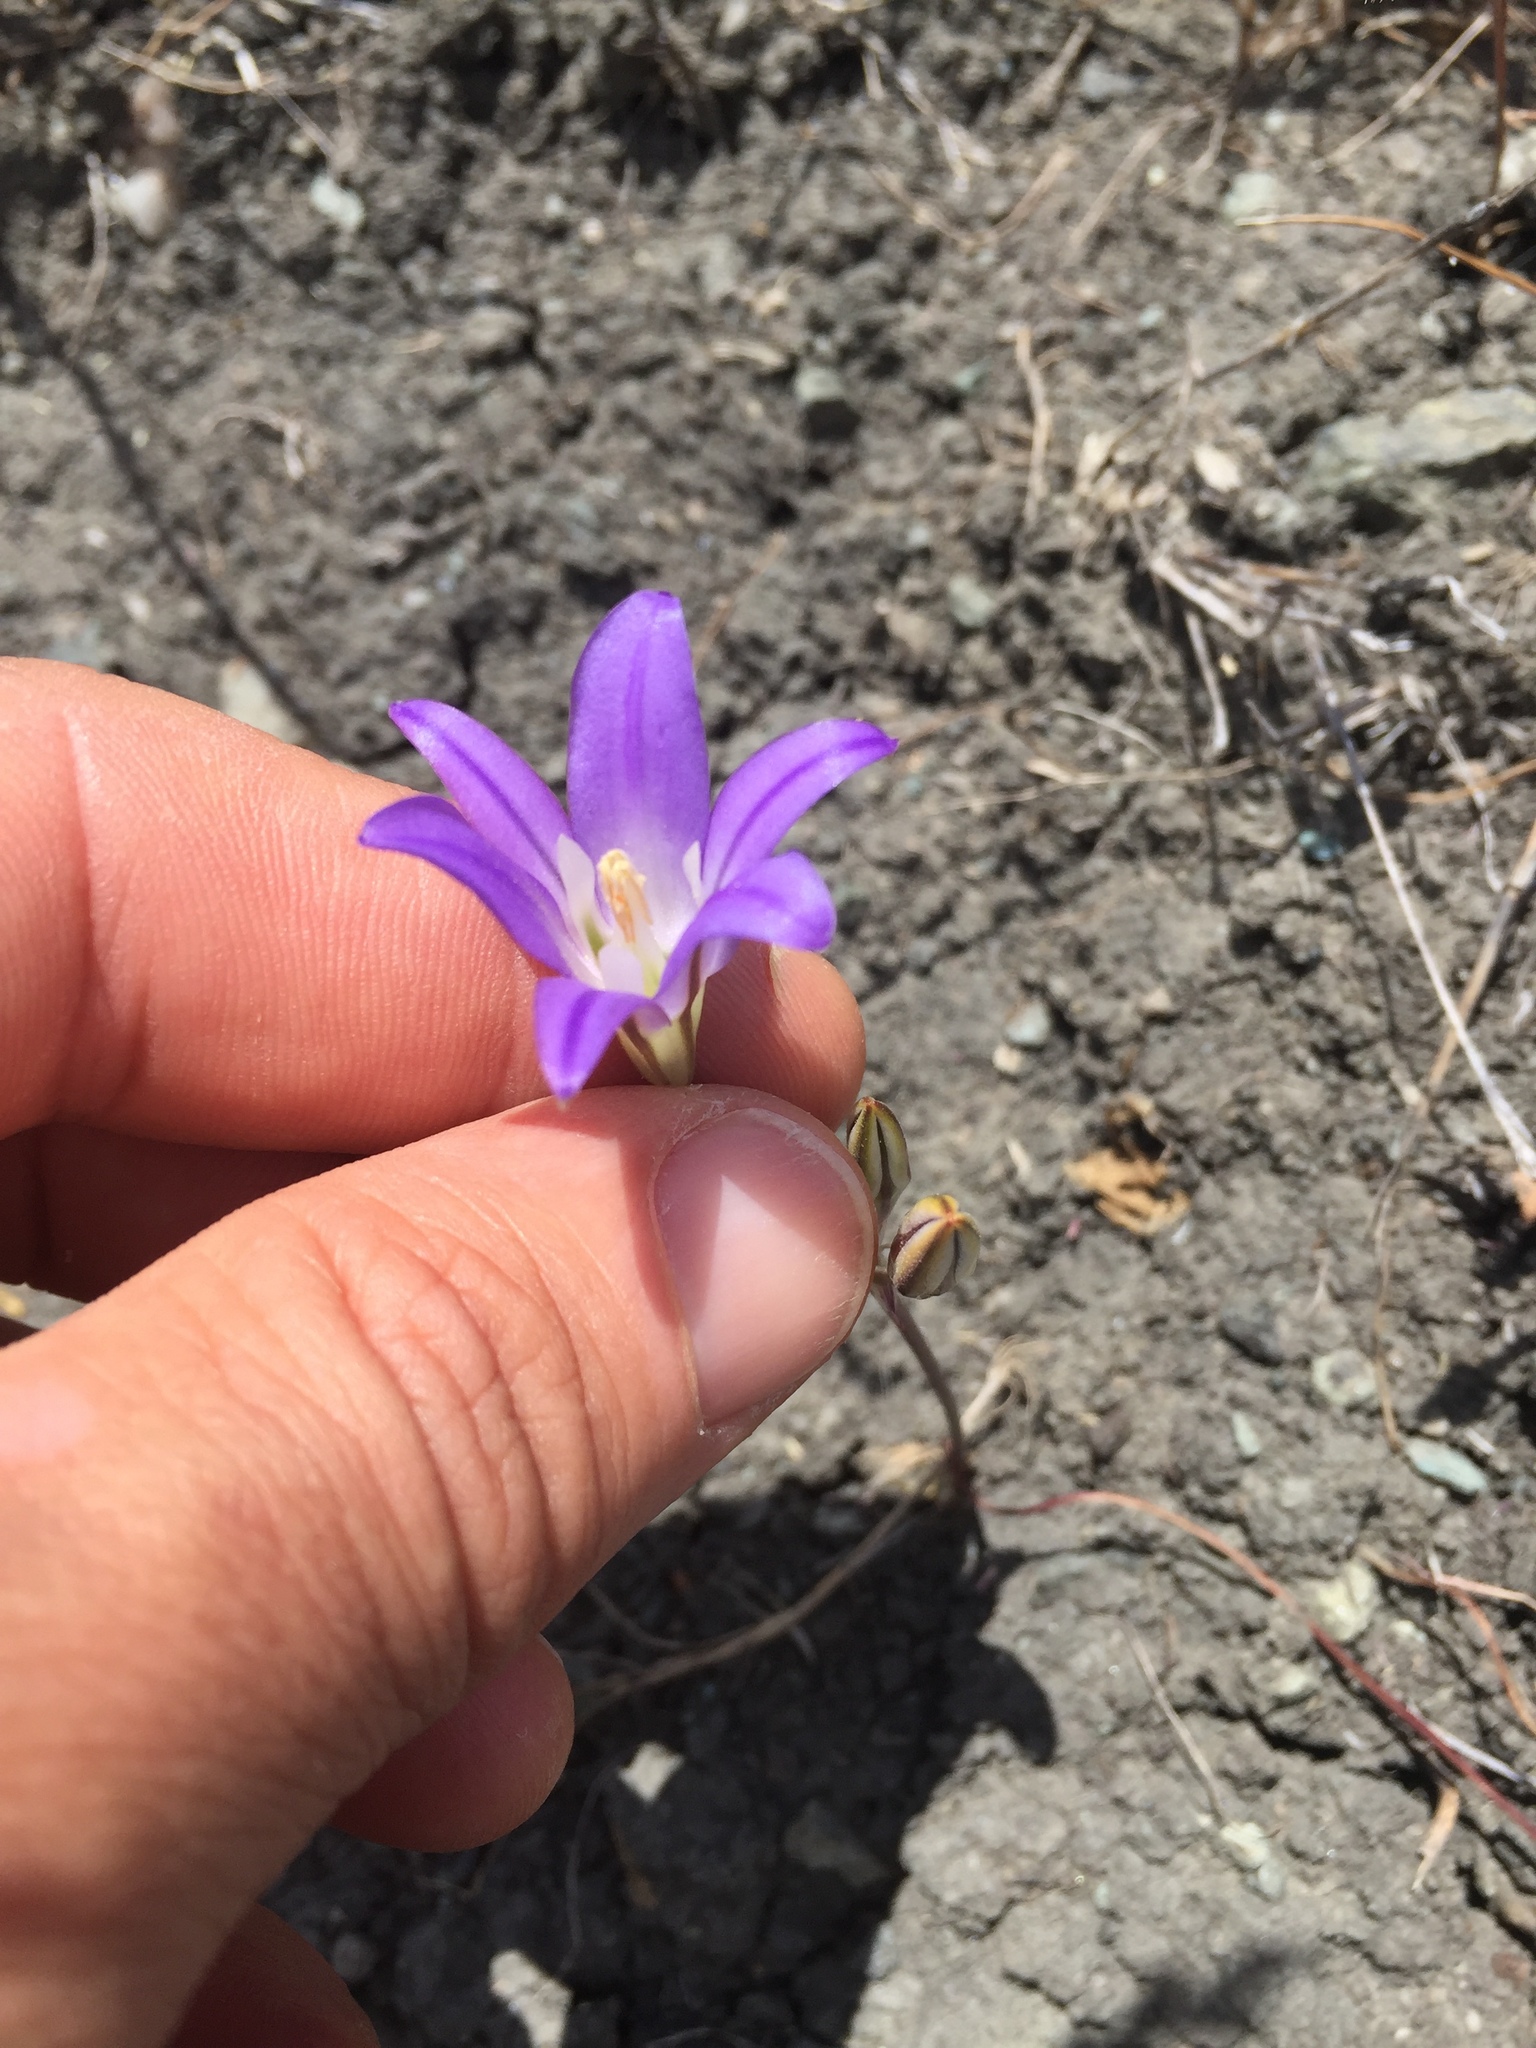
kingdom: Plantae
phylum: Tracheophyta
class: Liliopsida
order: Asparagales
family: Asparagaceae
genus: Brodiaea
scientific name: Brodiaea elegans
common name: Elegant cluster-lily
